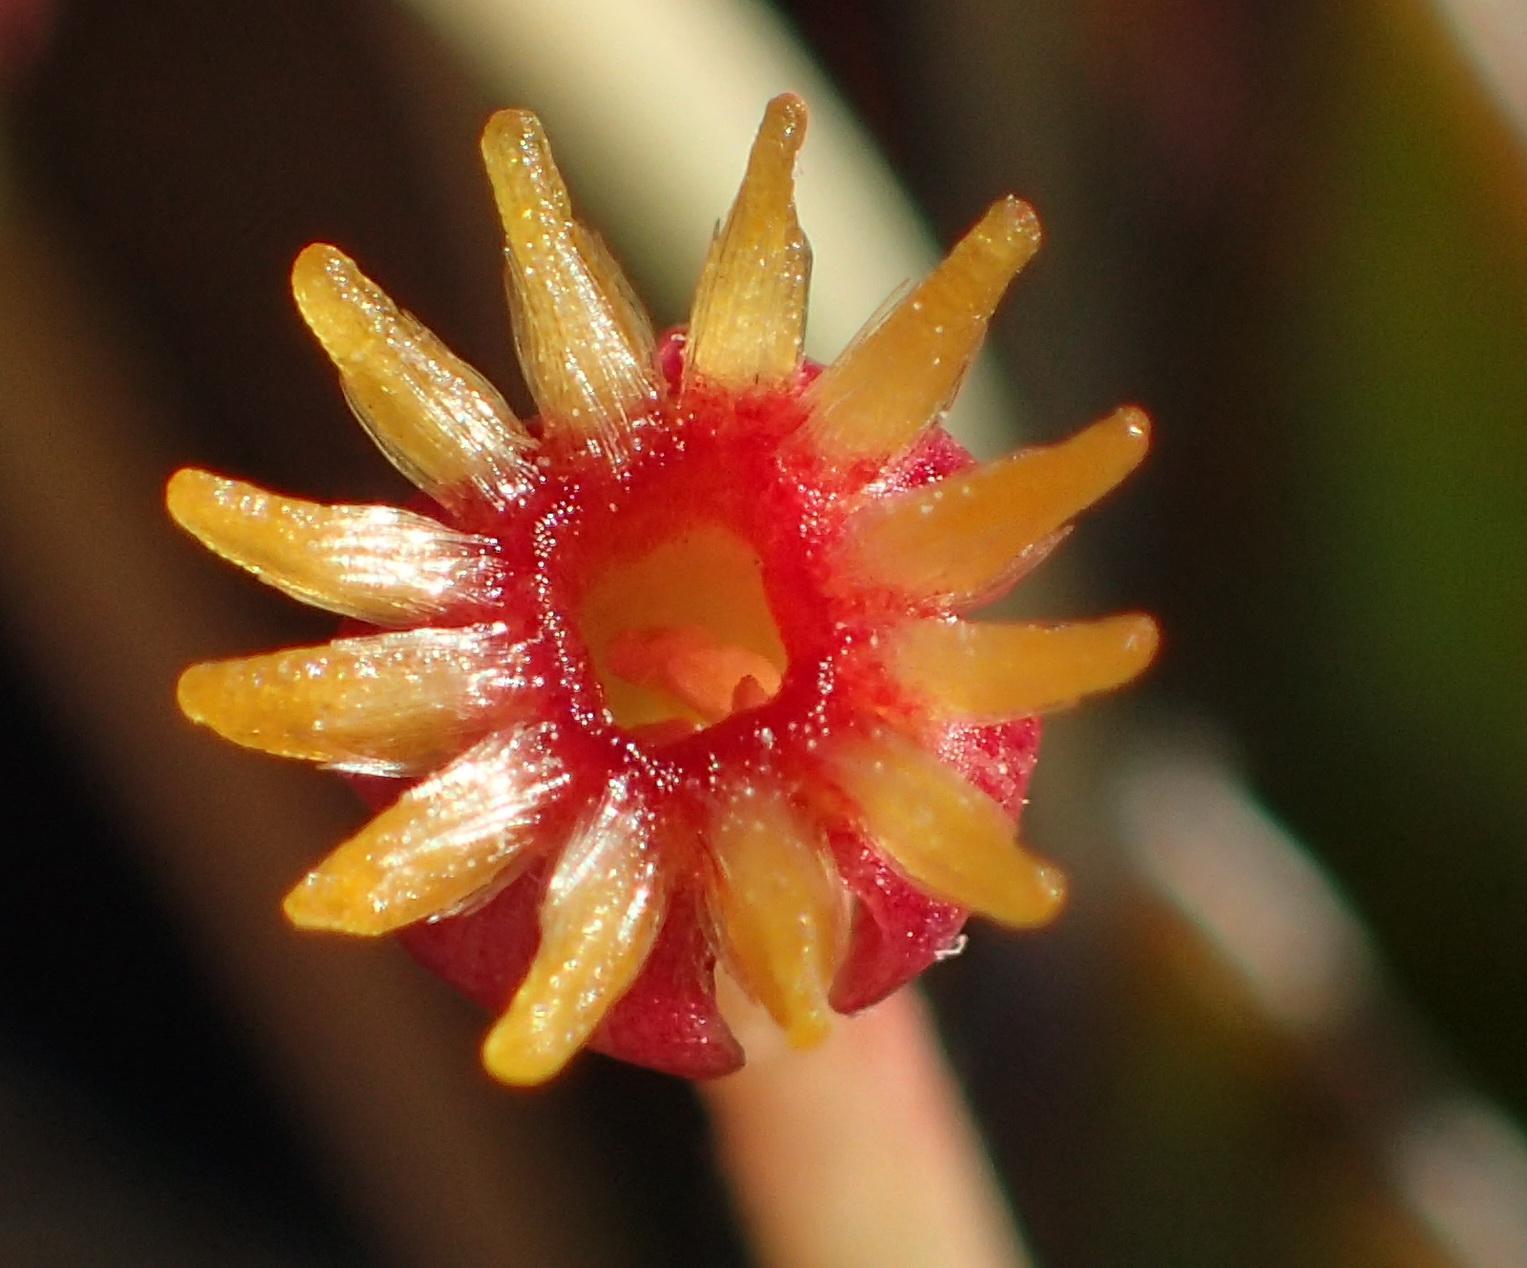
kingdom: Plantae
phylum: Tracheophyta
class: Magnoliopsida
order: Malvales
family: Thymelaeaceae
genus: Struthiola
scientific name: Struthiola argentea
